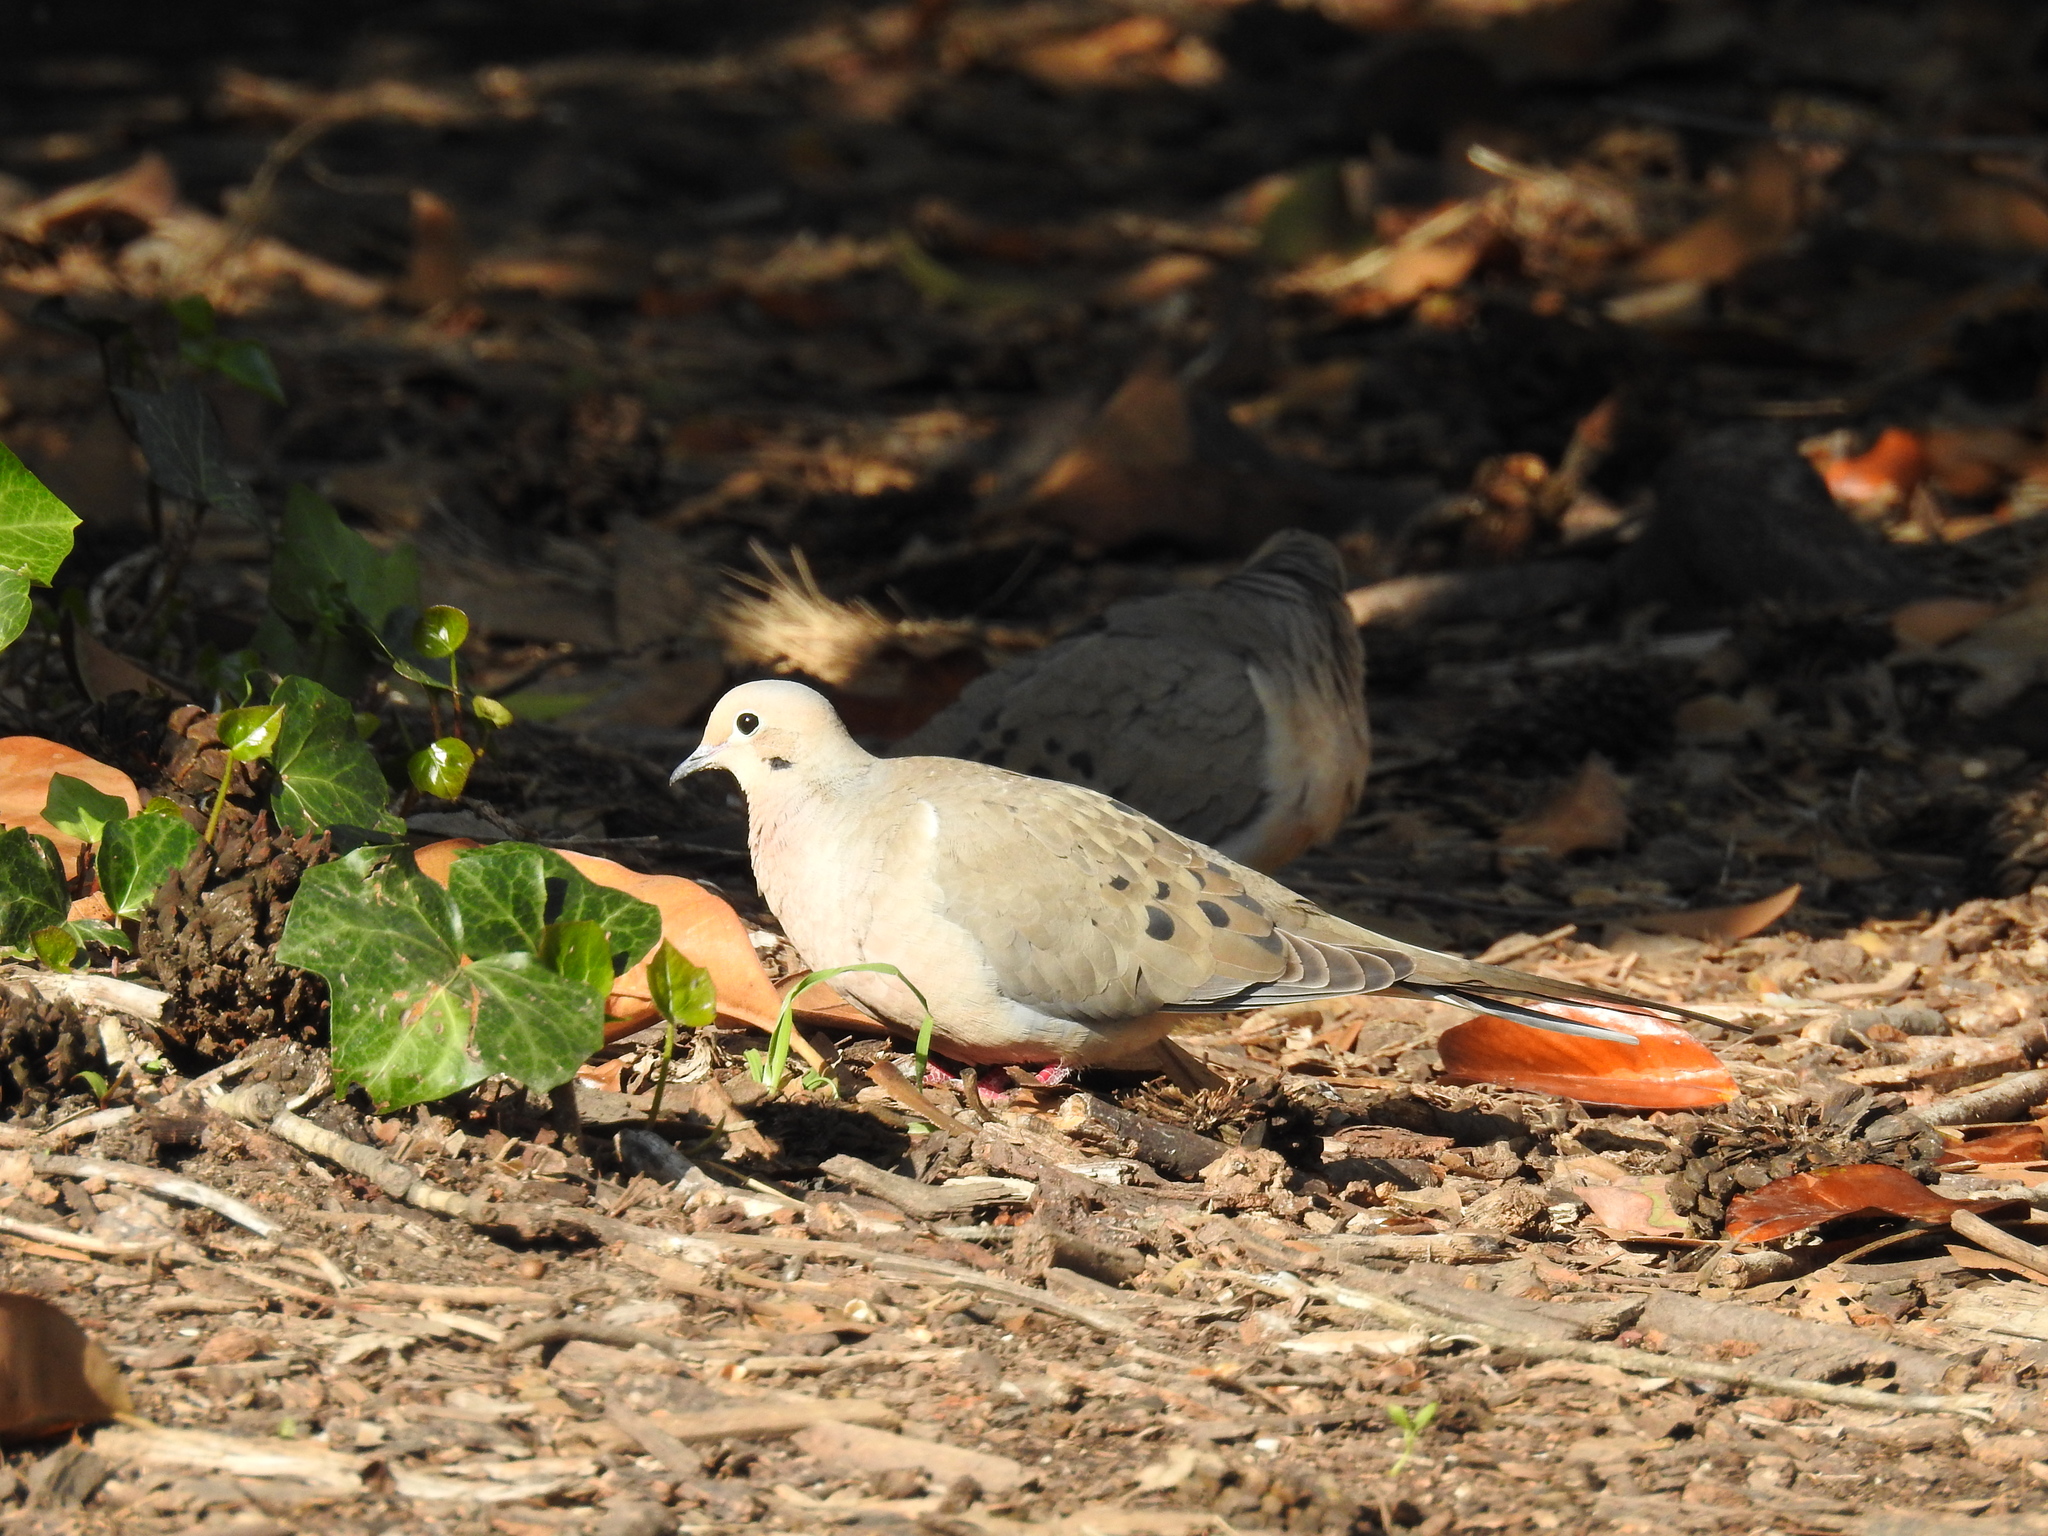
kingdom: Animalia
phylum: Chordata
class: Aves
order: Columbiformes
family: Columbidae
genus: Zenaida
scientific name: Zenaida macroura
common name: Mourning dove
